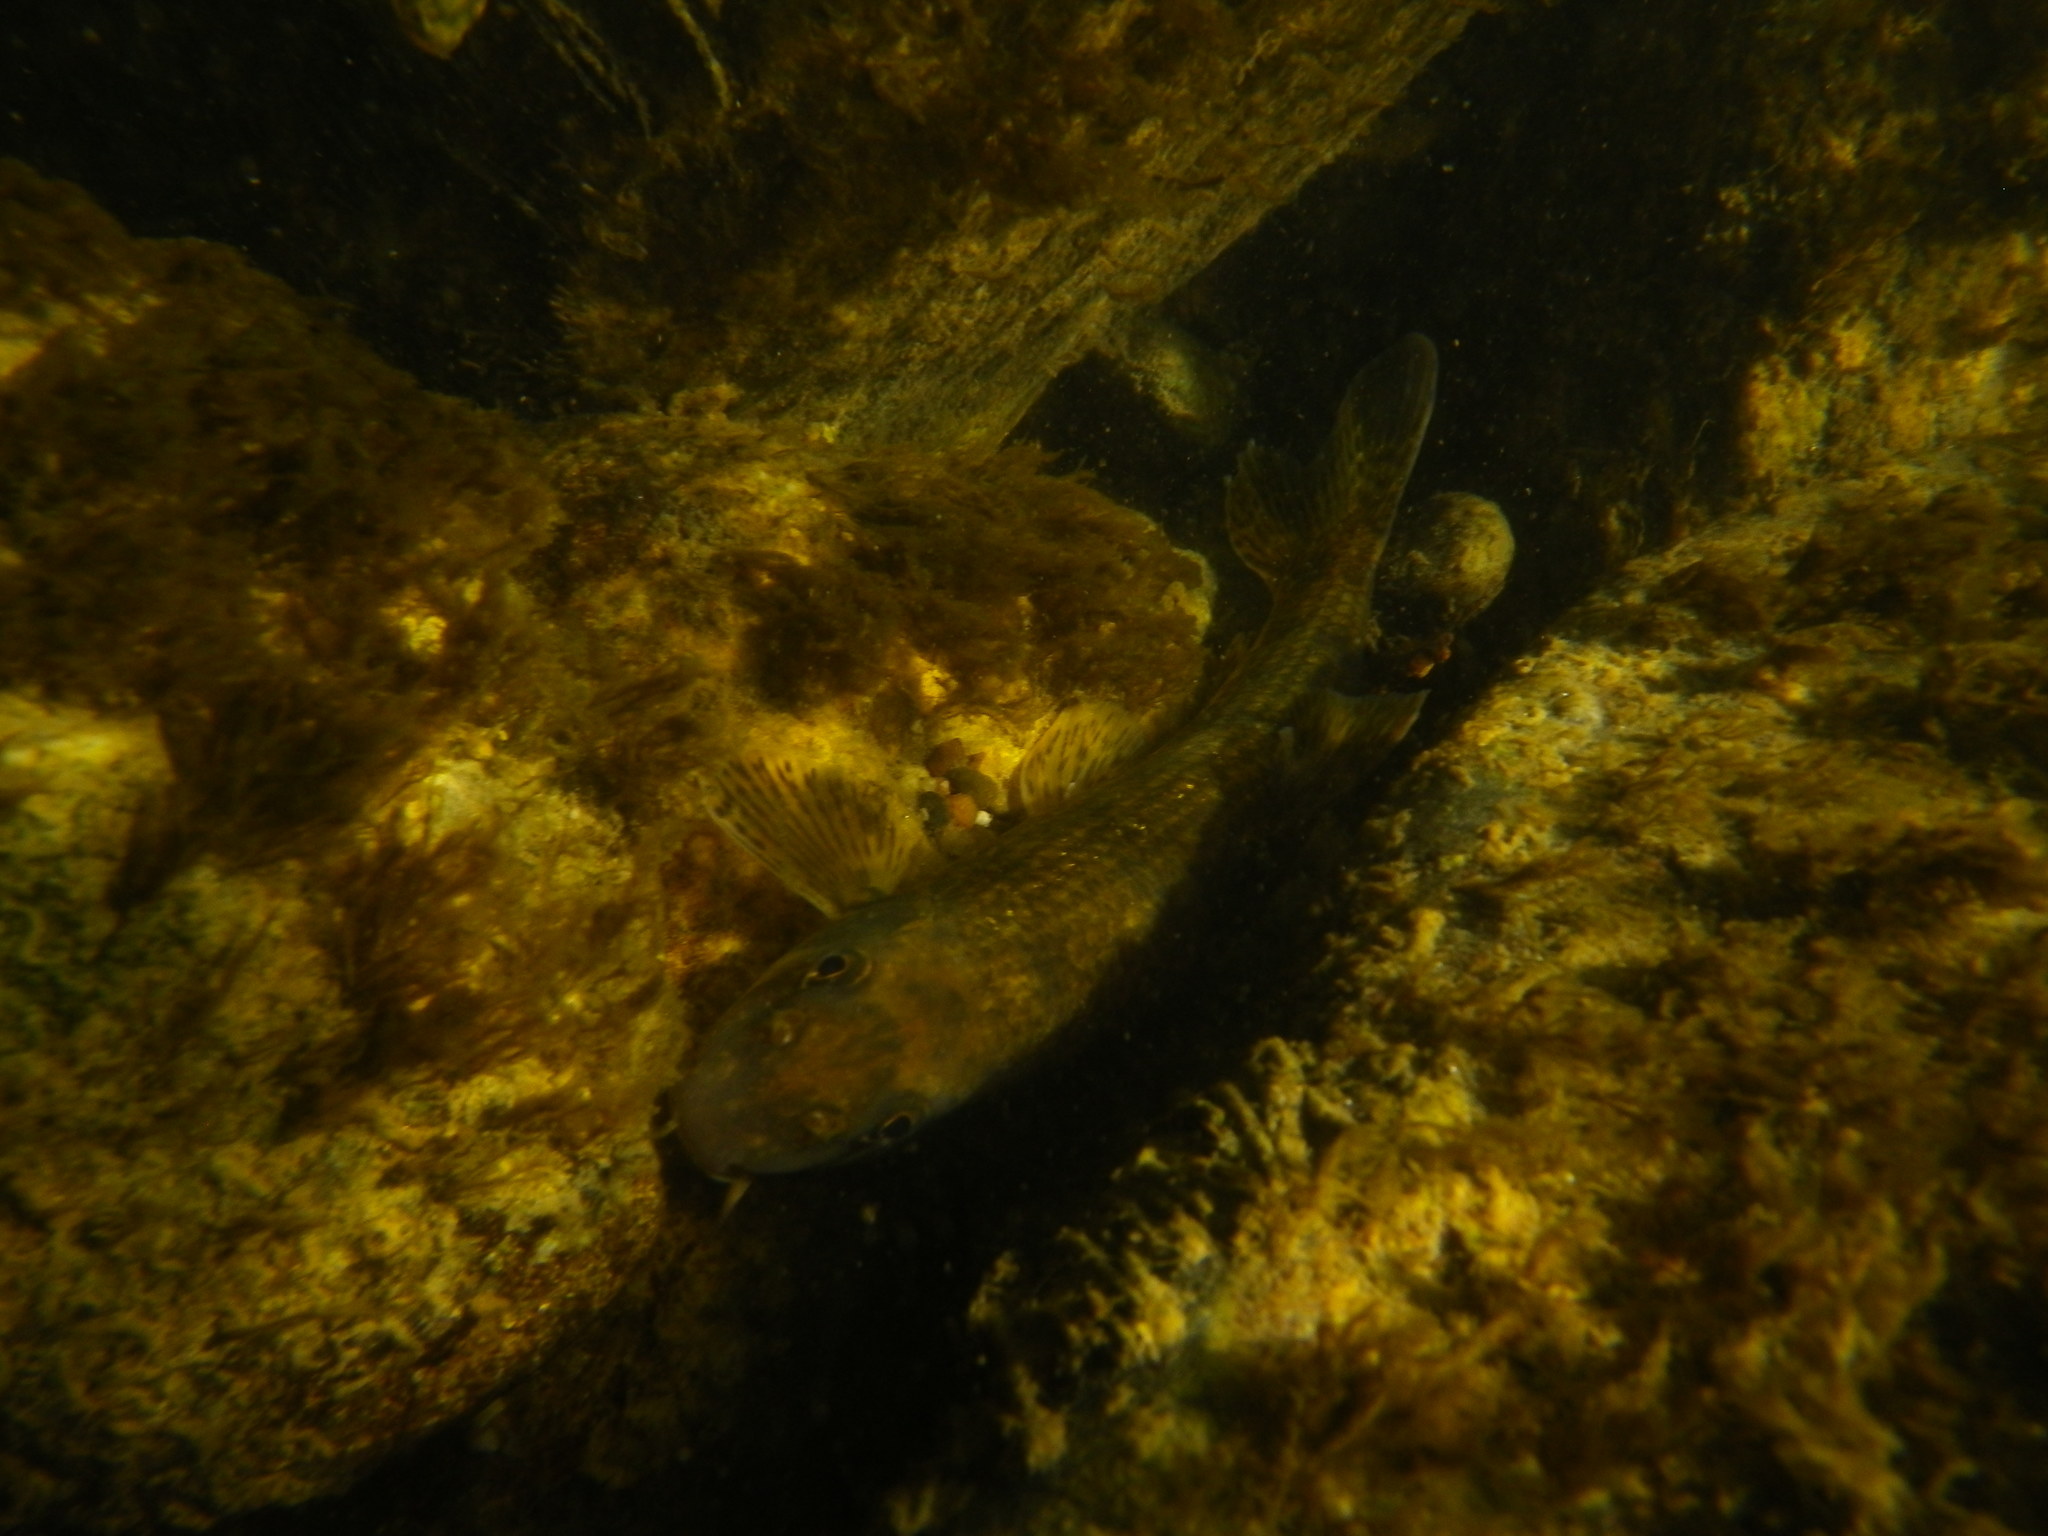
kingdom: Animalia
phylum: Chordata
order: Cypriniformes
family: Cyprinidae
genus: Gobio
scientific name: Gobio occitaniae
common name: Languedoc gudgeon
